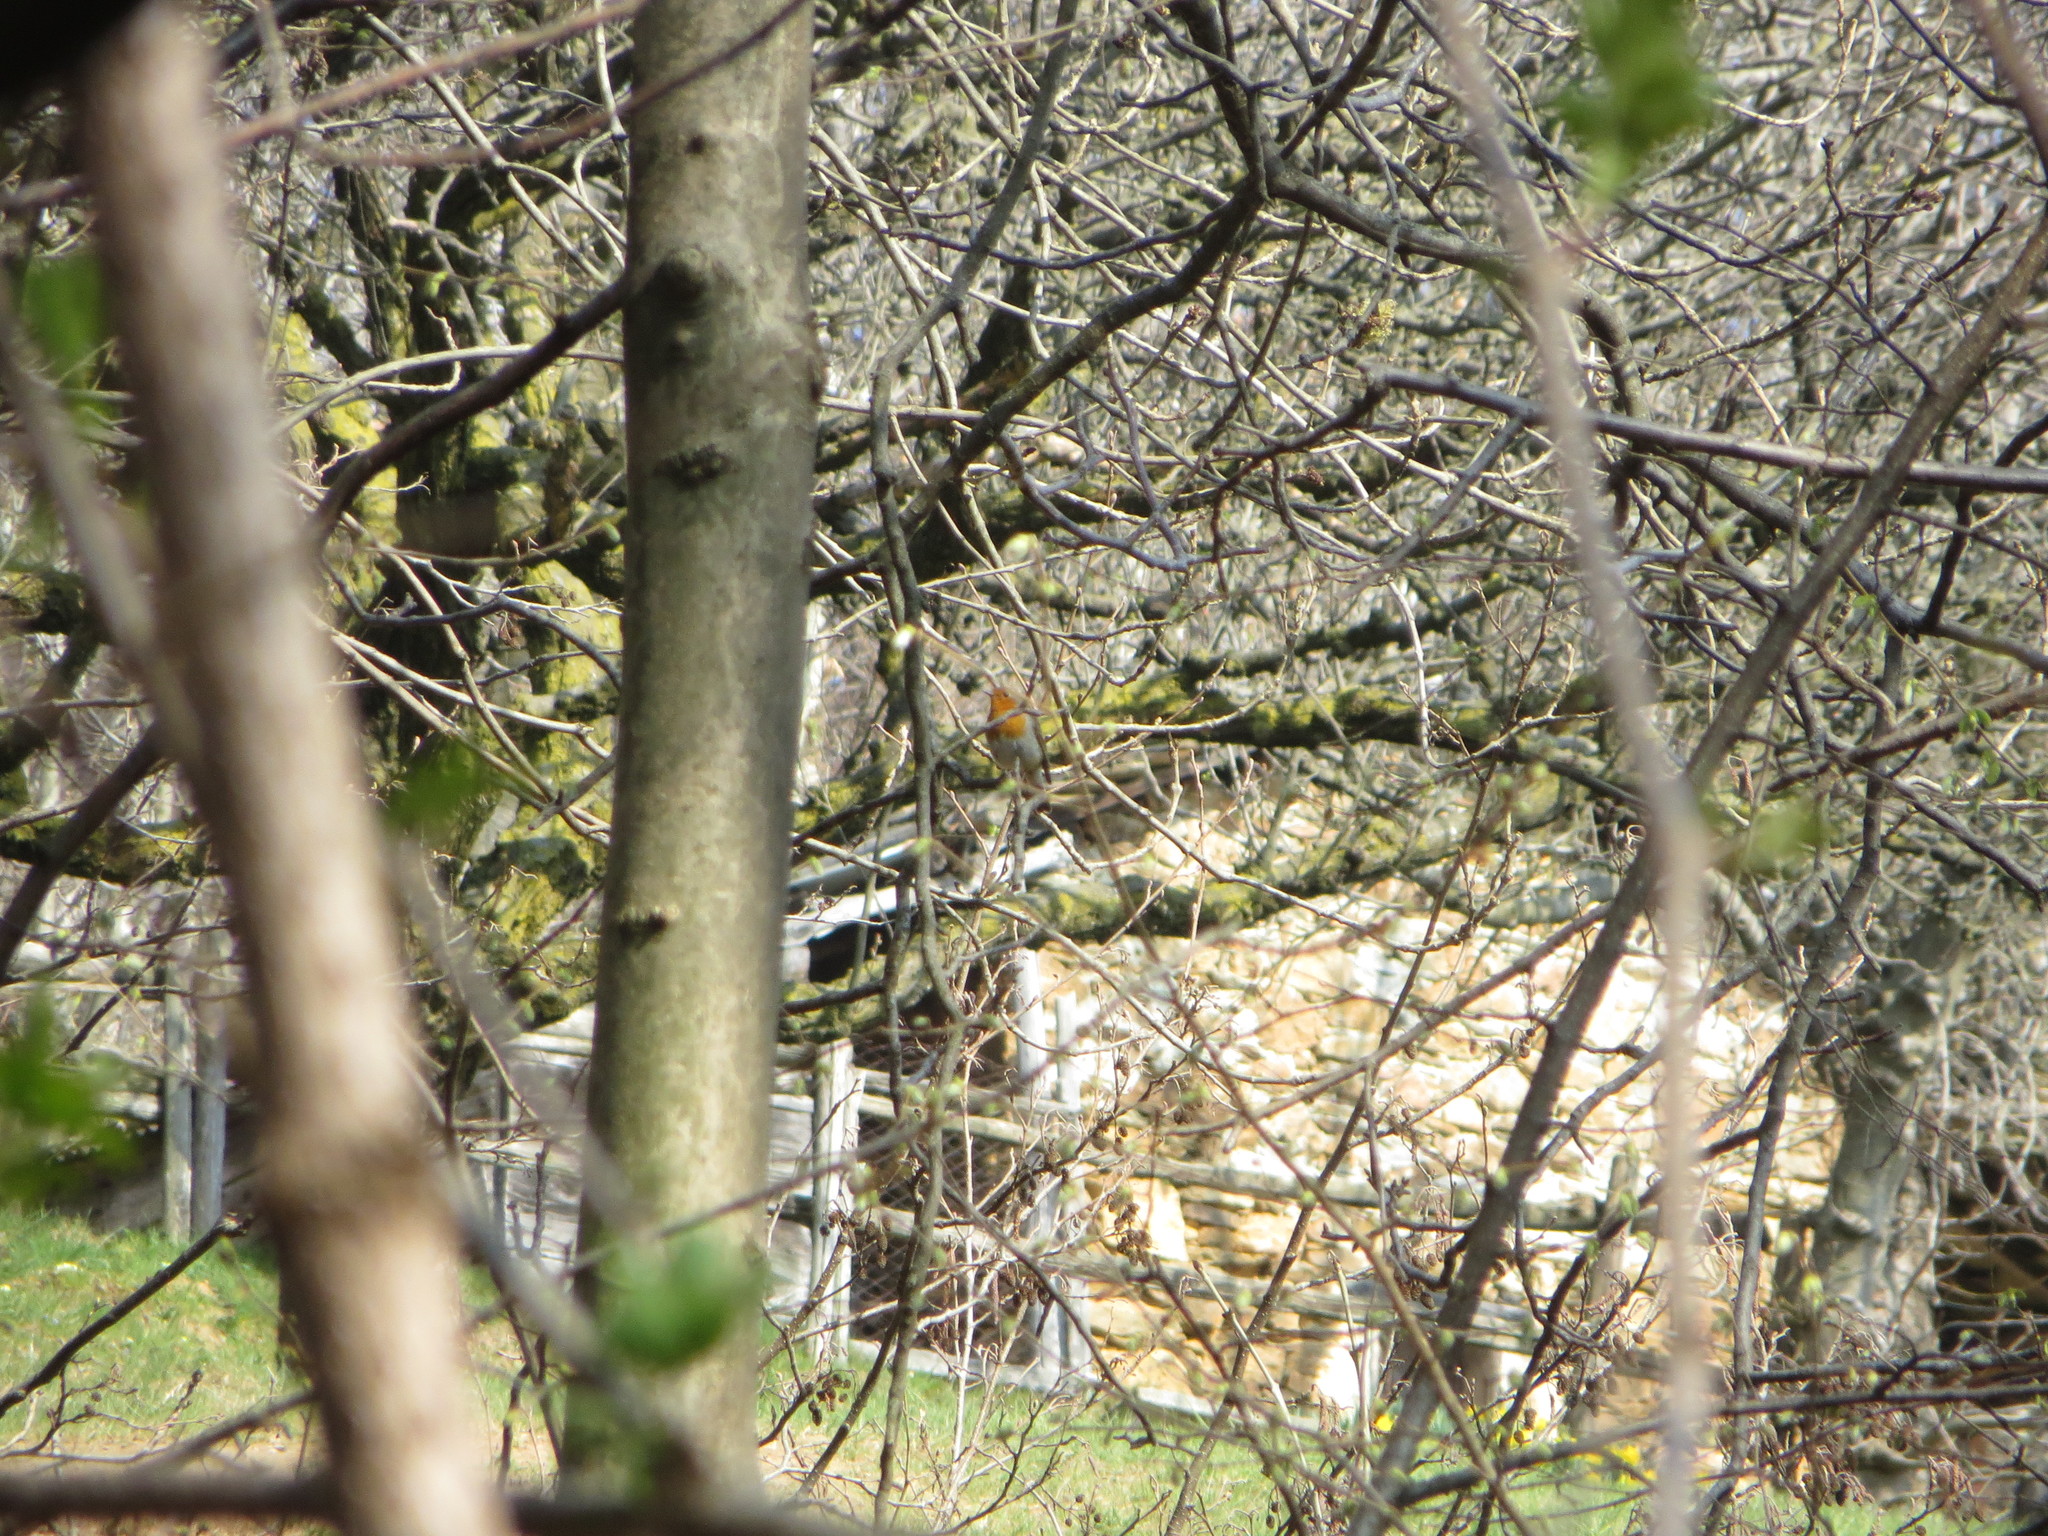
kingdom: Animalia
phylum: Chordata
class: Aves
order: Passeriformes
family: Muscicapidae
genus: Erithacus
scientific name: Erithacus rubecula
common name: European robin
